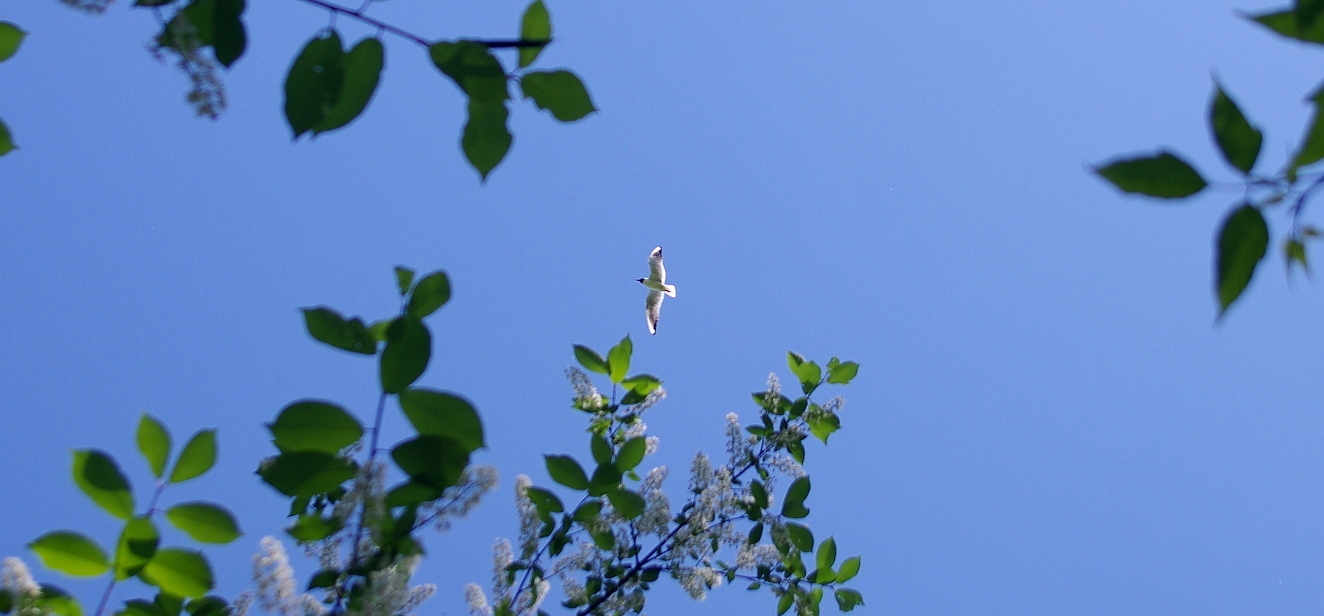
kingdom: Animalia
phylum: Chordata
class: Aves
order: Charadriiformes
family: Laridae
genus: Chroicocephalus
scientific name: Chroicocephalus ridibundus
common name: Black-headed gull
